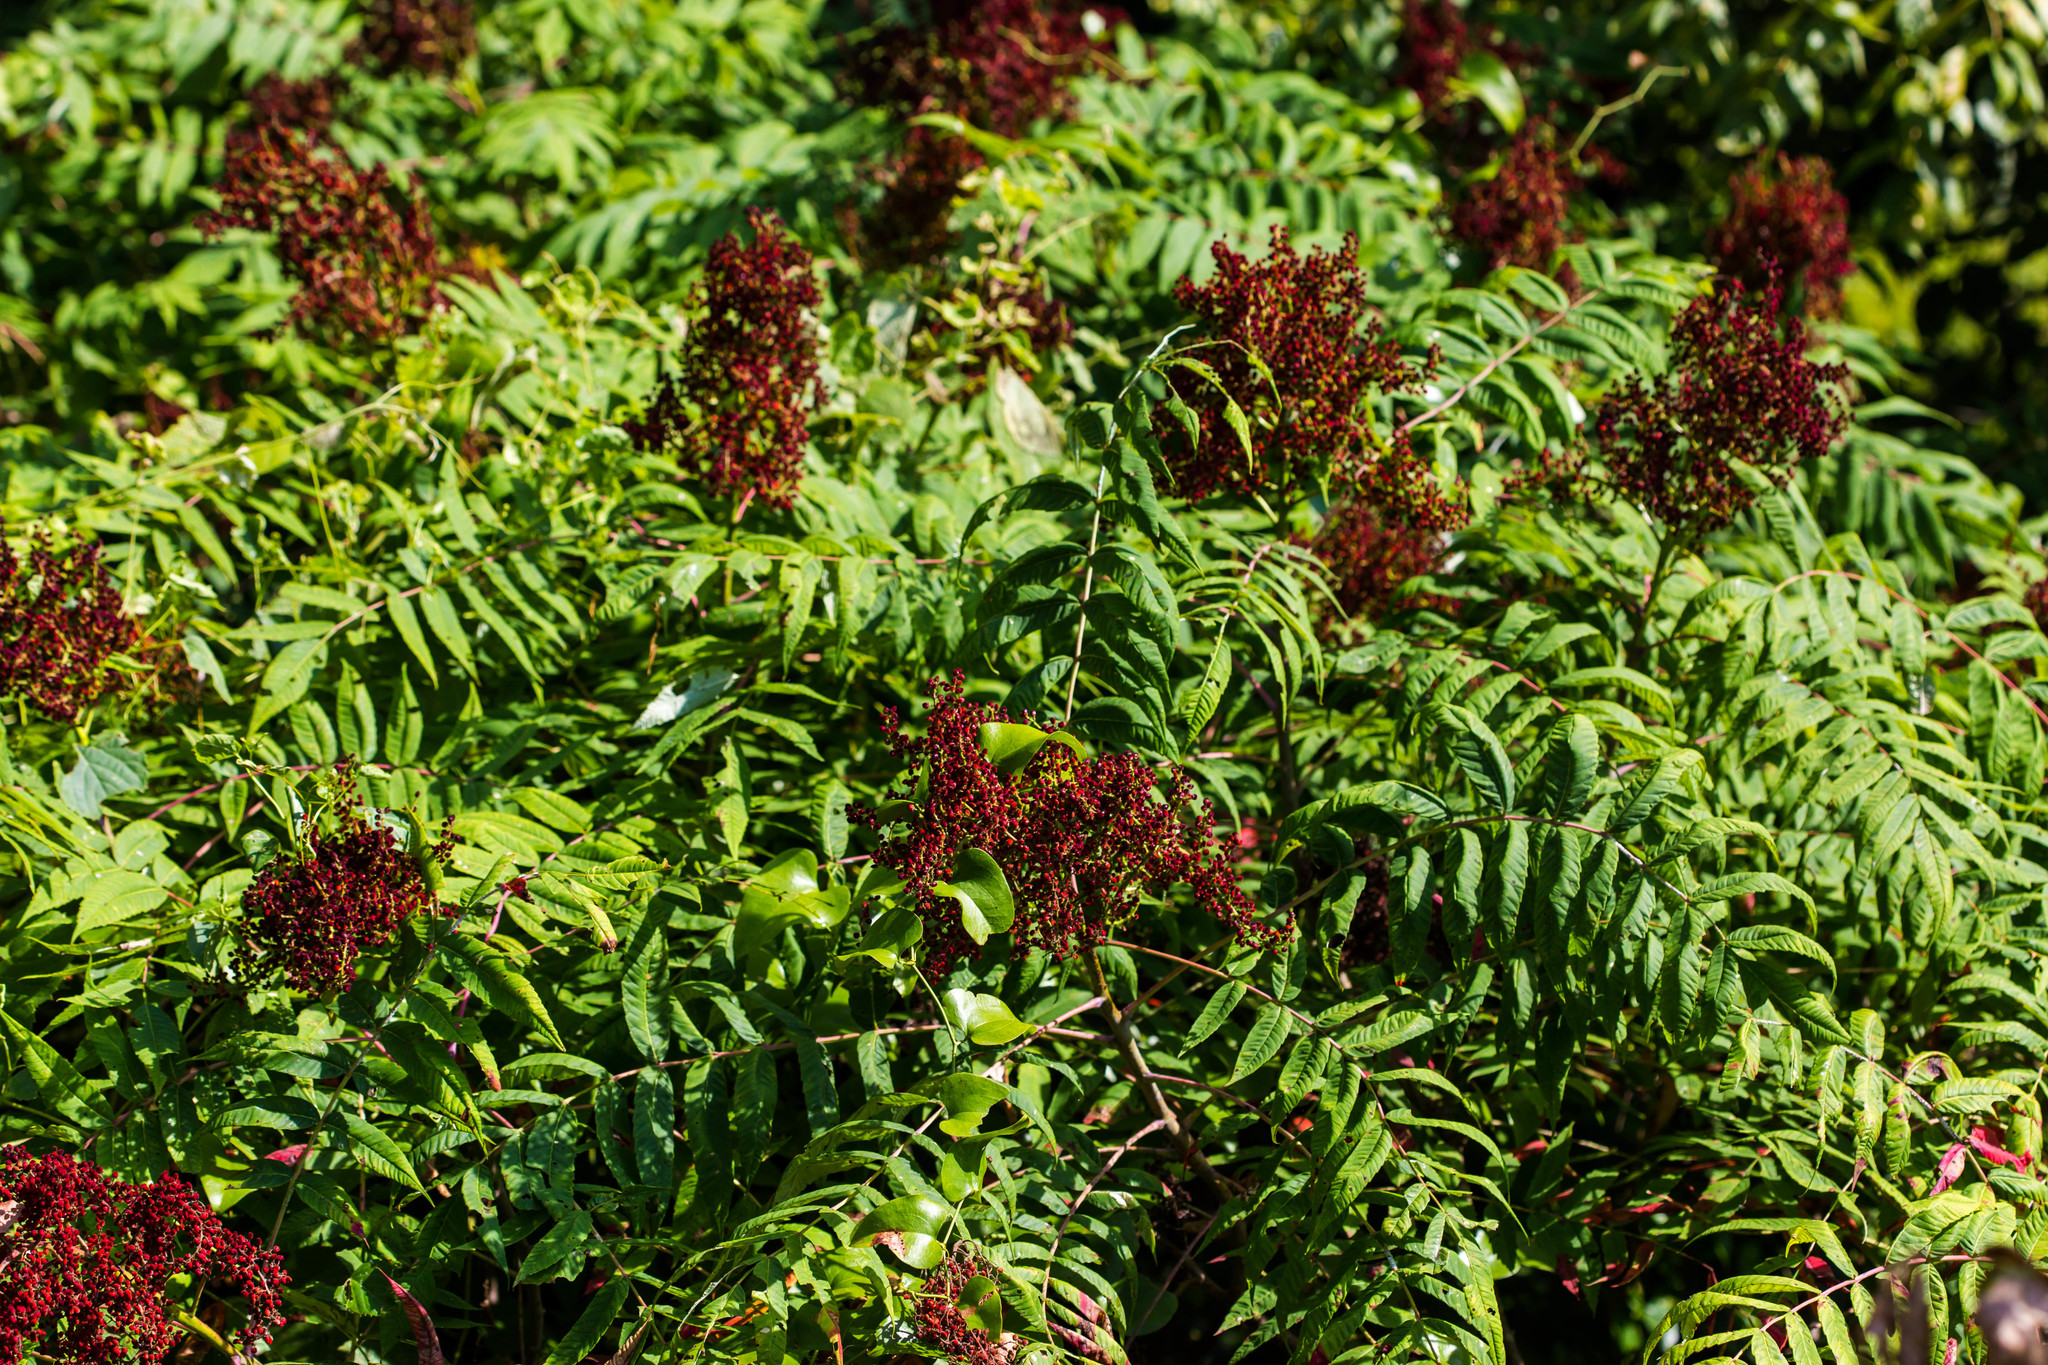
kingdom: Plantae
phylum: Tracheophyta
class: Magnoliopsida
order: Sapindales
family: Anacardiaceae
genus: Rhus
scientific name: Rhus glabra
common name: Scarlet sumac
